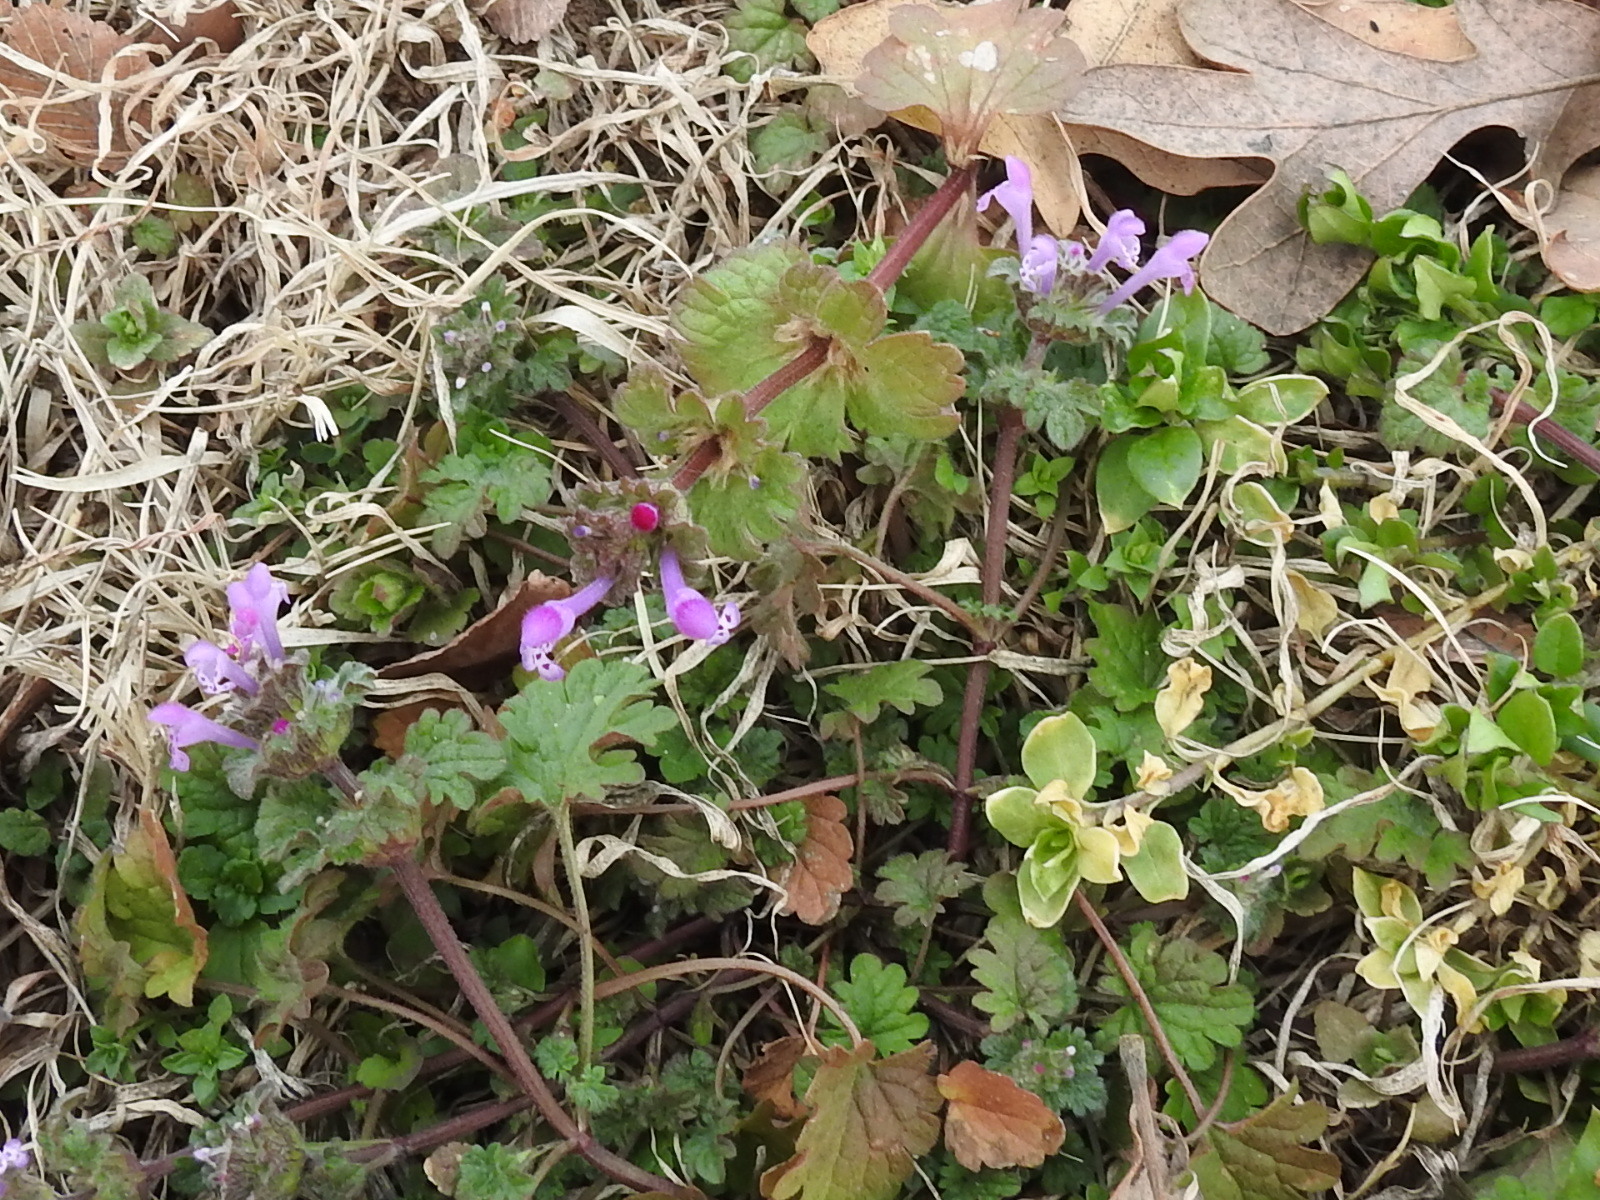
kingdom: Plantae
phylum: Tracheophyta
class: Magnoliopsida
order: Lamiales
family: Lamiaceae
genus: Lamium
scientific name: Lamium amplexicaule
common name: Henbit dead-nettle
